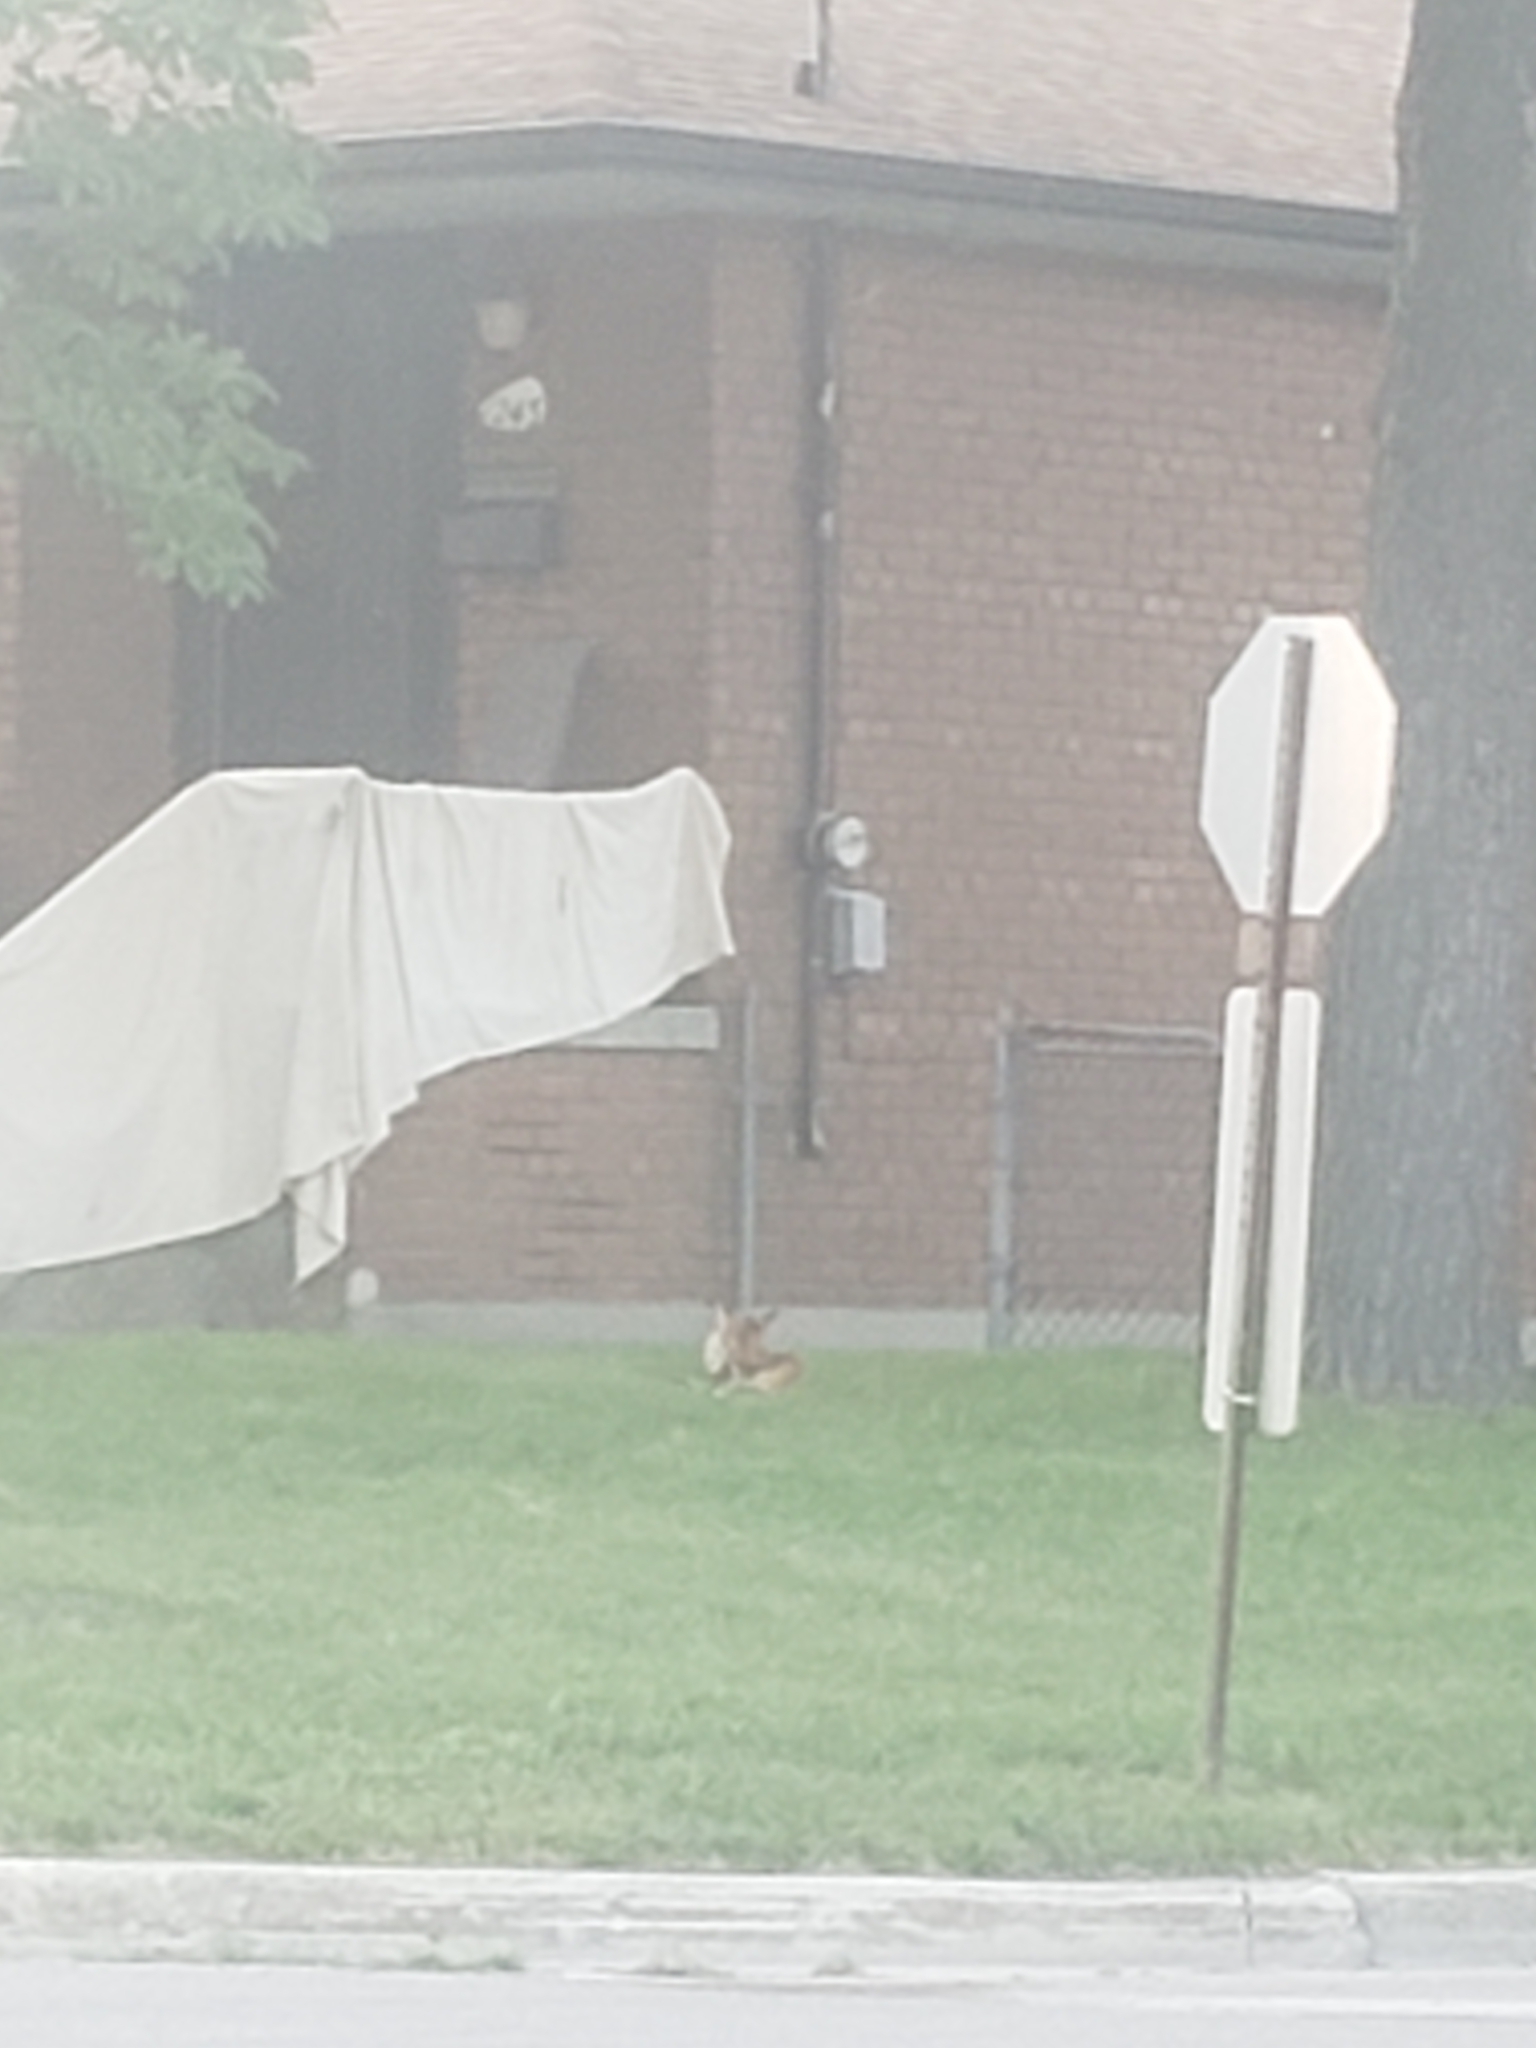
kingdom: Animalia
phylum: Chordata
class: Mammalia
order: Carnivora
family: Canidae
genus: Vulpes
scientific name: Vulpes vulpes
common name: Red fox
